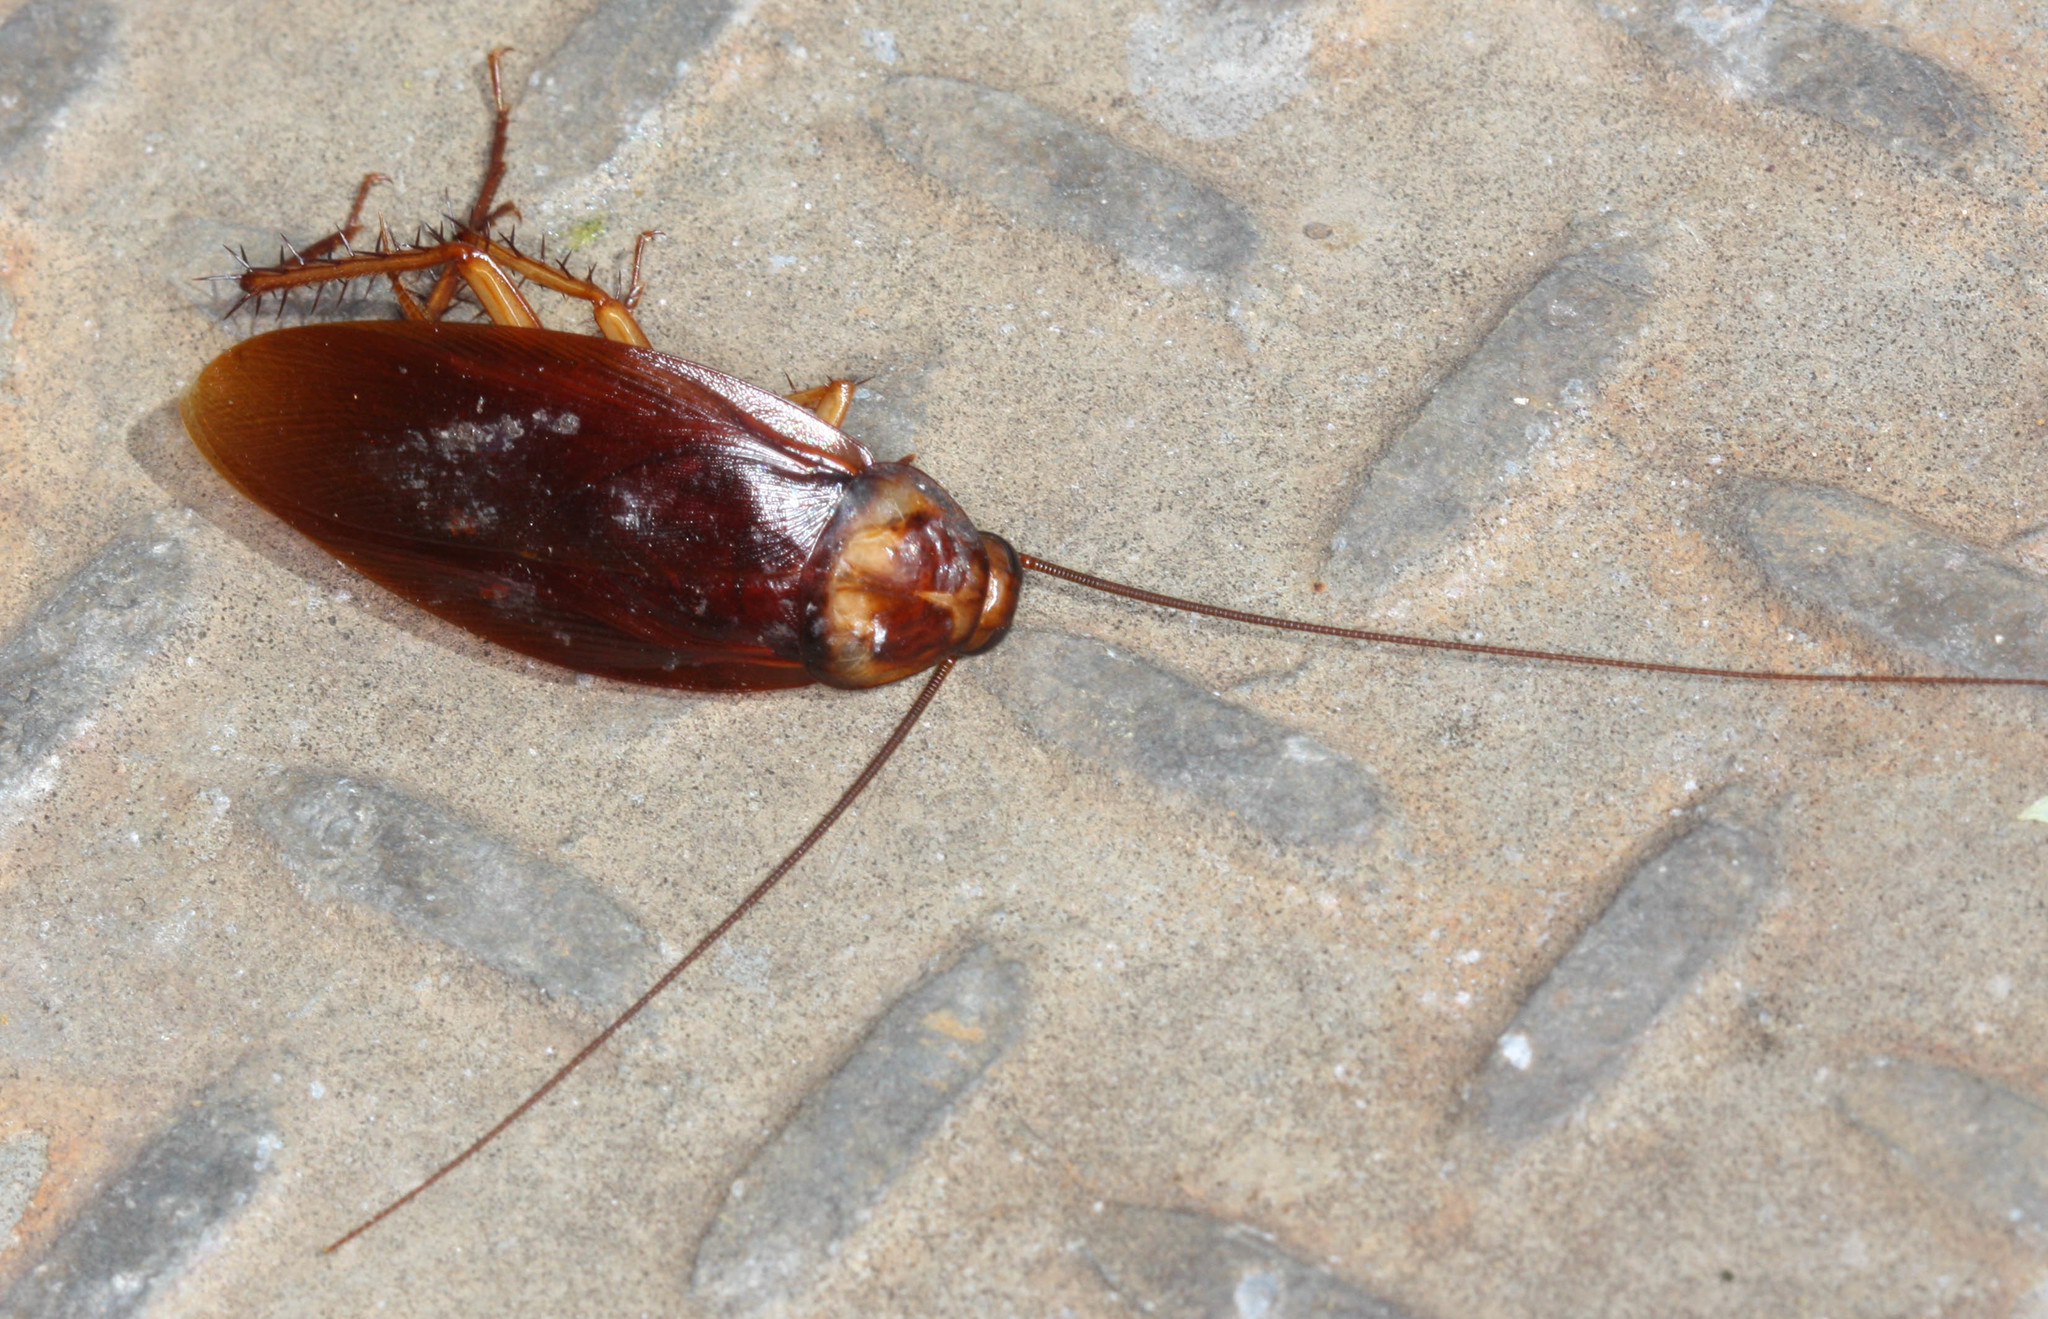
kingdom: Animalia
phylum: Arthropoda
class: Insecta
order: Blattodea
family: Blattidae
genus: Periplaneta
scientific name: Periplaneta americana
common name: American cockroach
